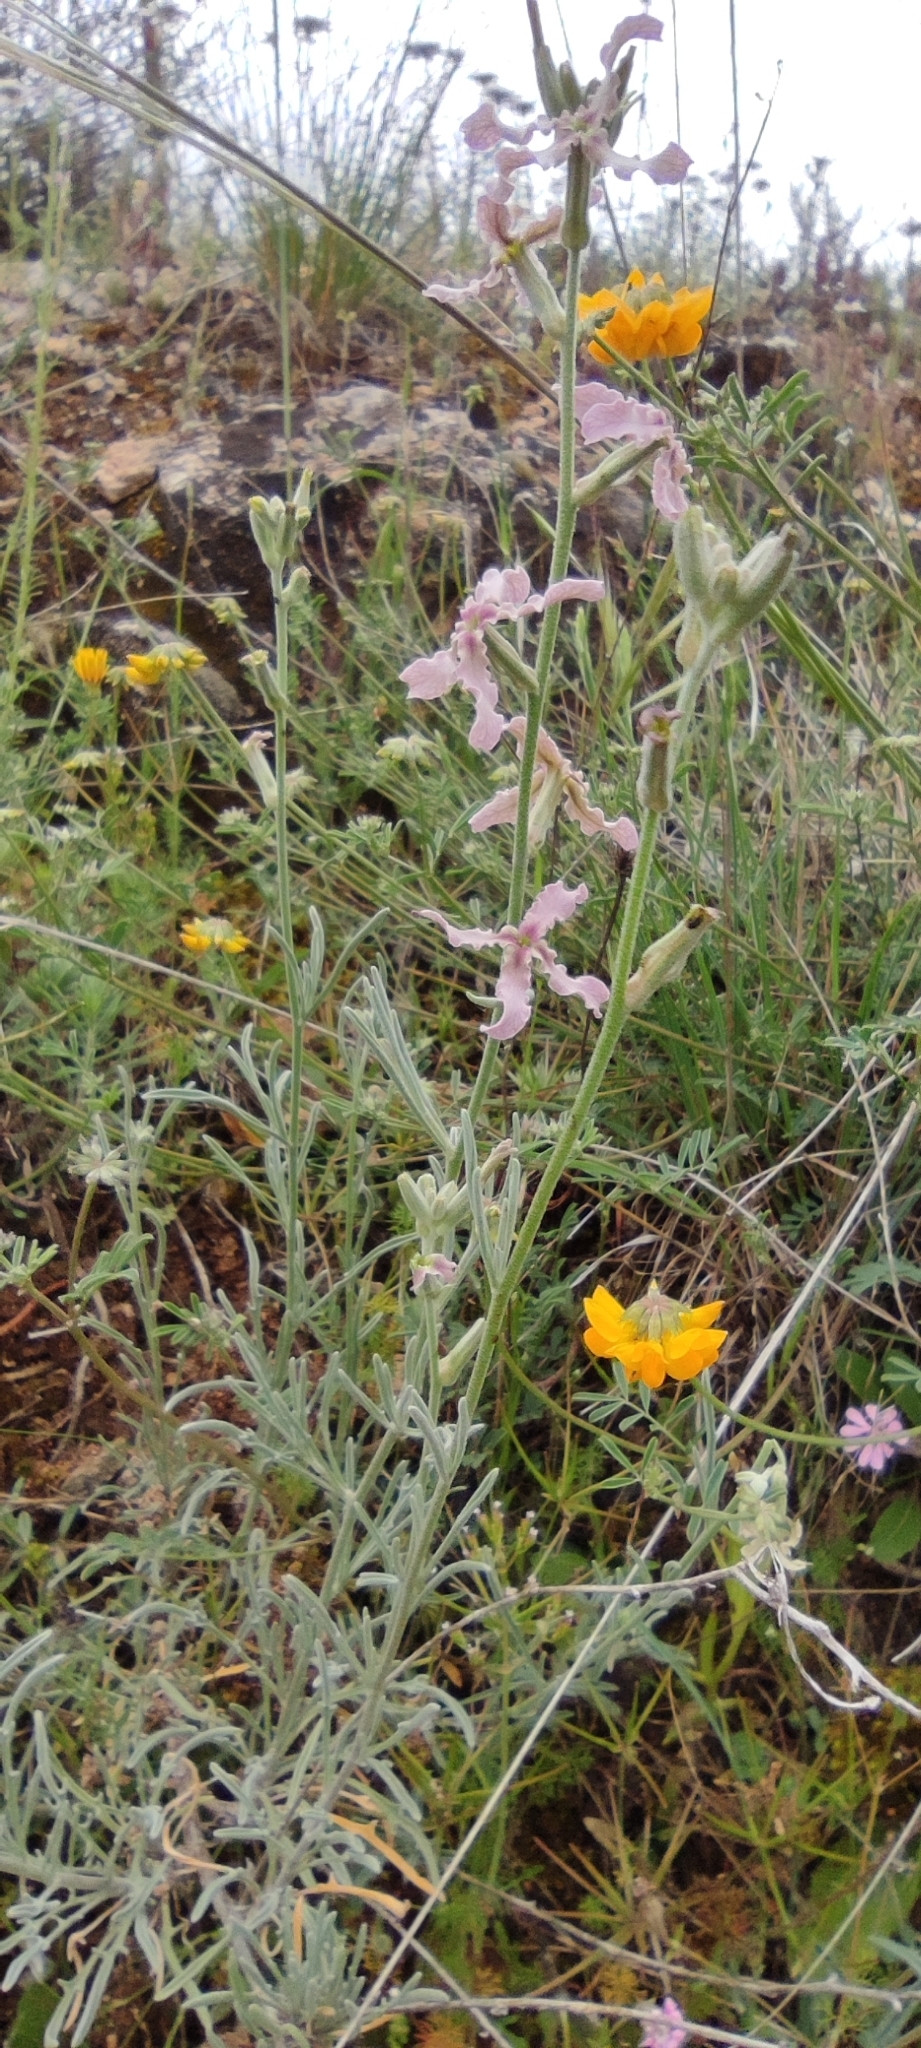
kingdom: Plantae
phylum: Tracheophyta
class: Magnoliopsida
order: Brassicales
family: Brassicaceae
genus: Matthiola
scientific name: Matthiola fruticulosa
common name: Sad stock
